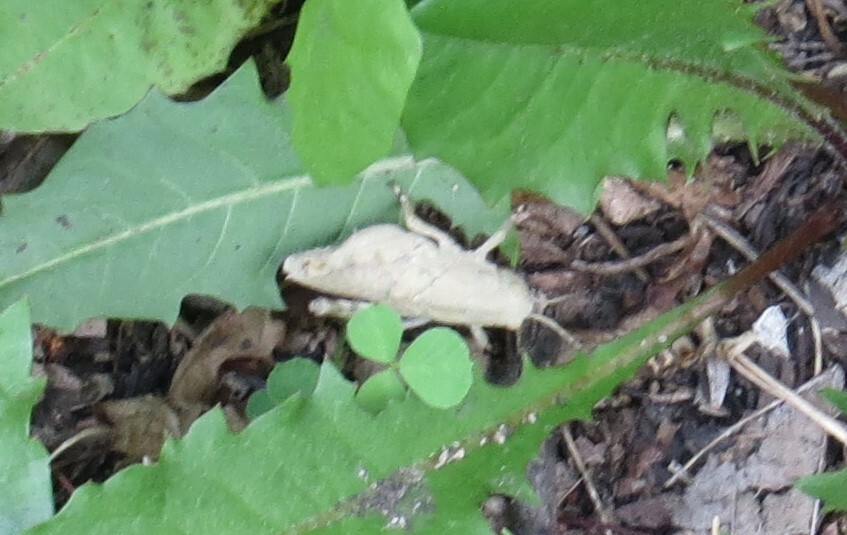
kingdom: Animalia
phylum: Arthropoda
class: Insecta
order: Orthoptera
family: Acrididae
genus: Dissosteira
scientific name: Dissosteira carolina
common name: Carolina grasshopper
